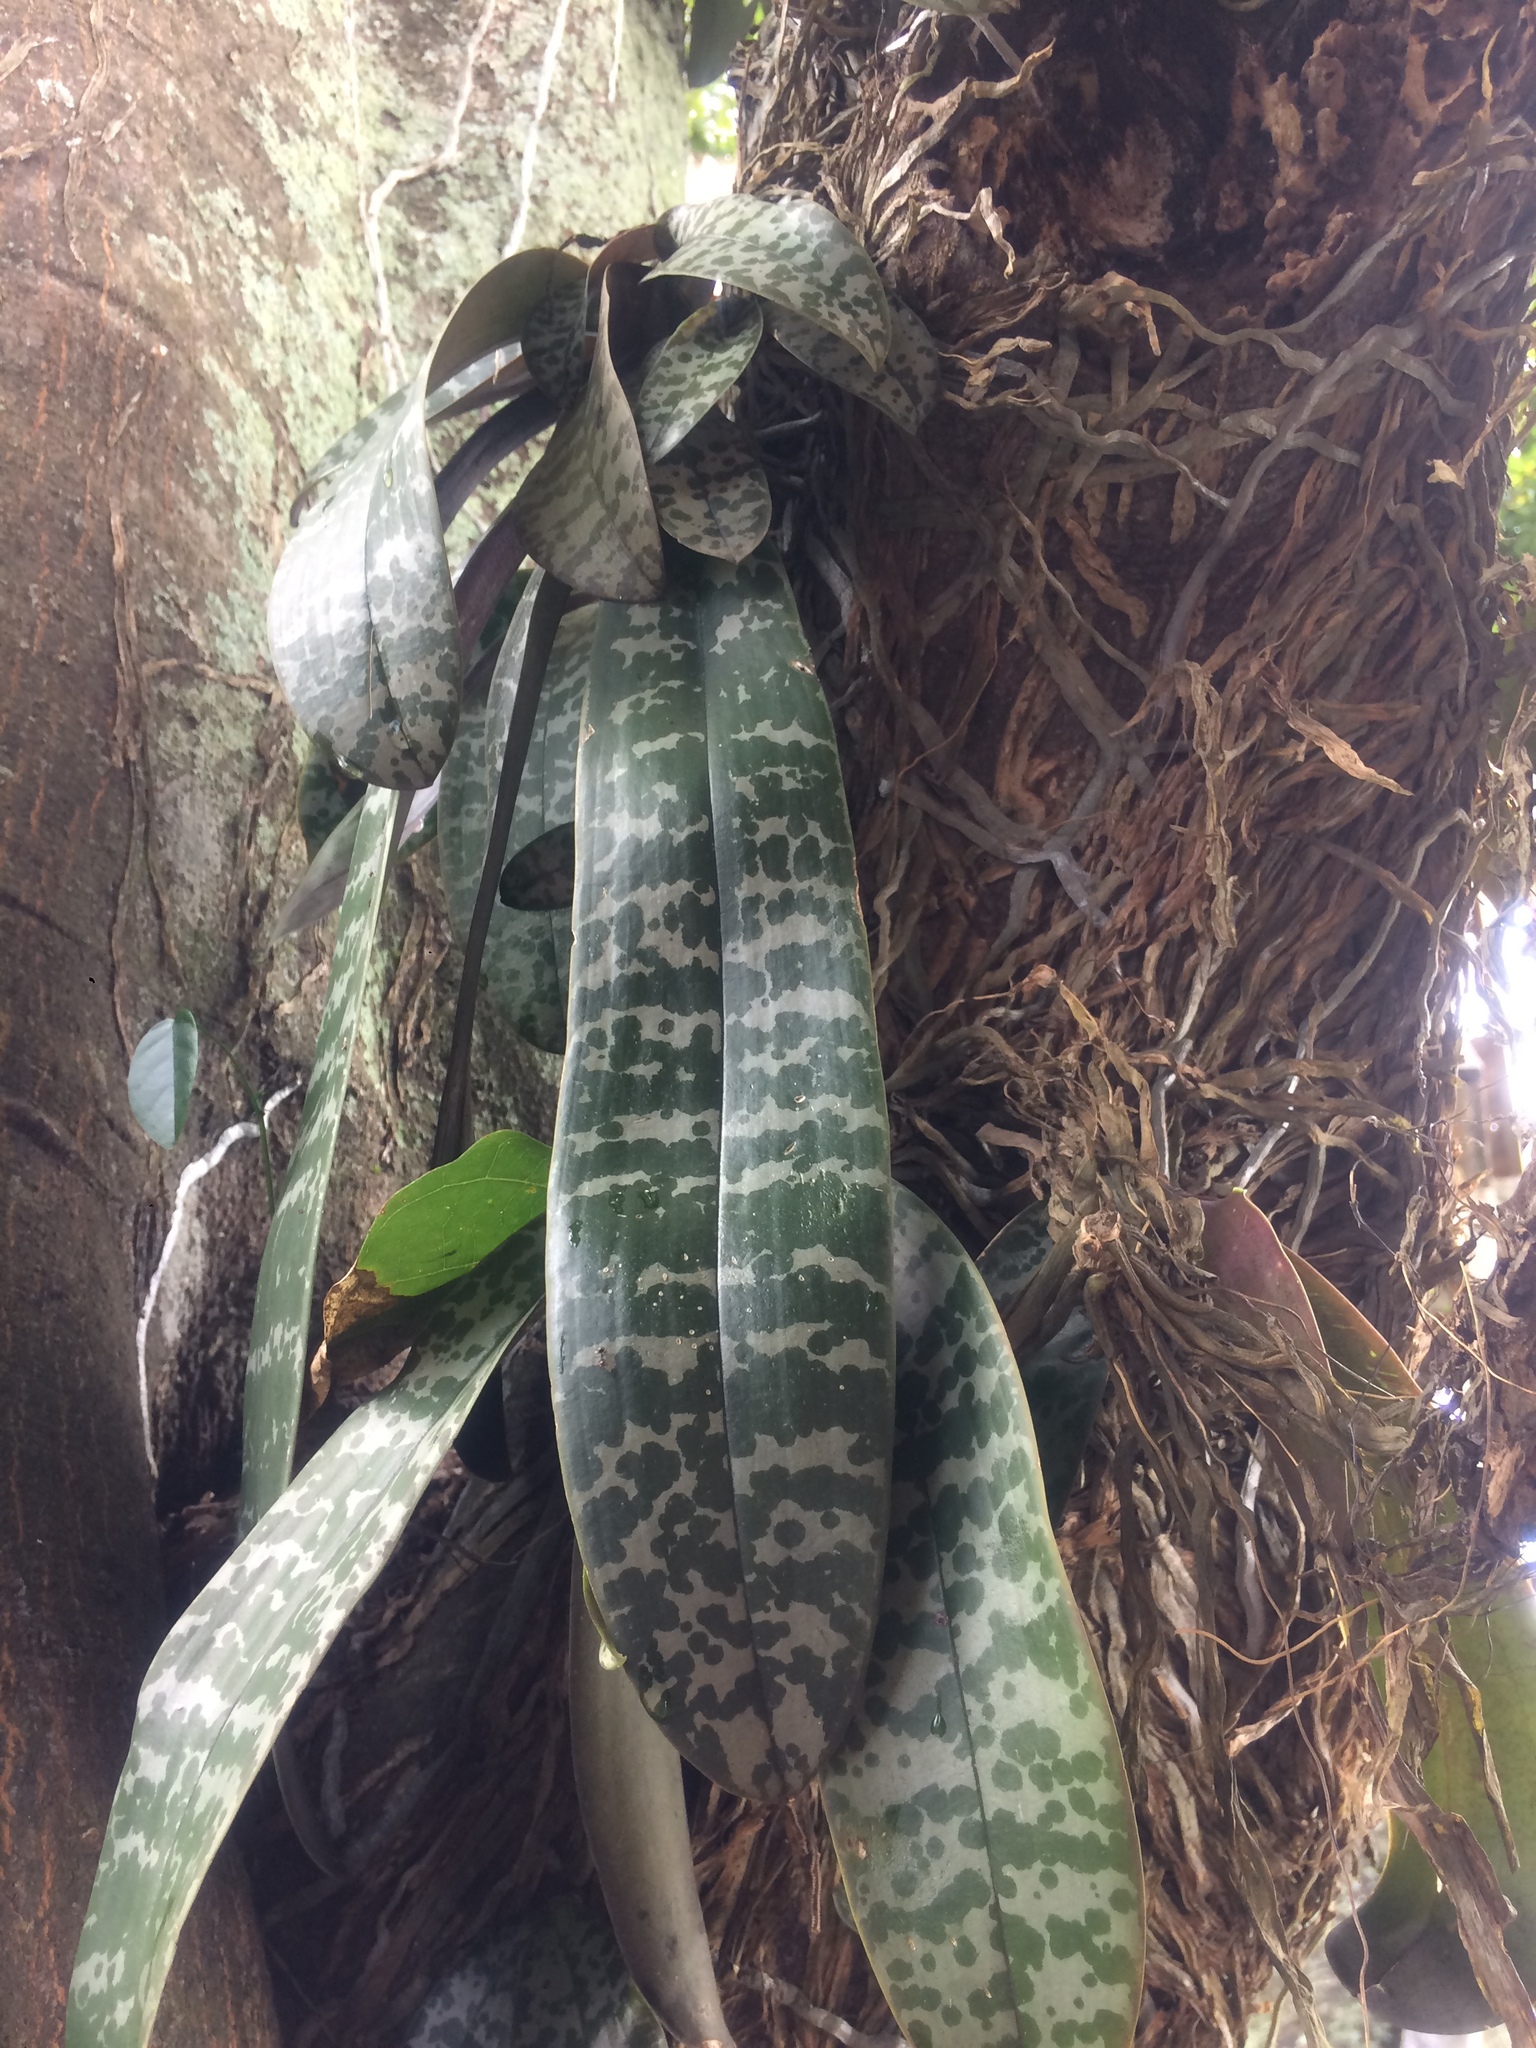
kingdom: Plantae
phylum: Tracheophyta
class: Liliopsida
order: Asparagales
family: Orchidaceae
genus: Phalaenopsis
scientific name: Phalaenopsis schilleriana
